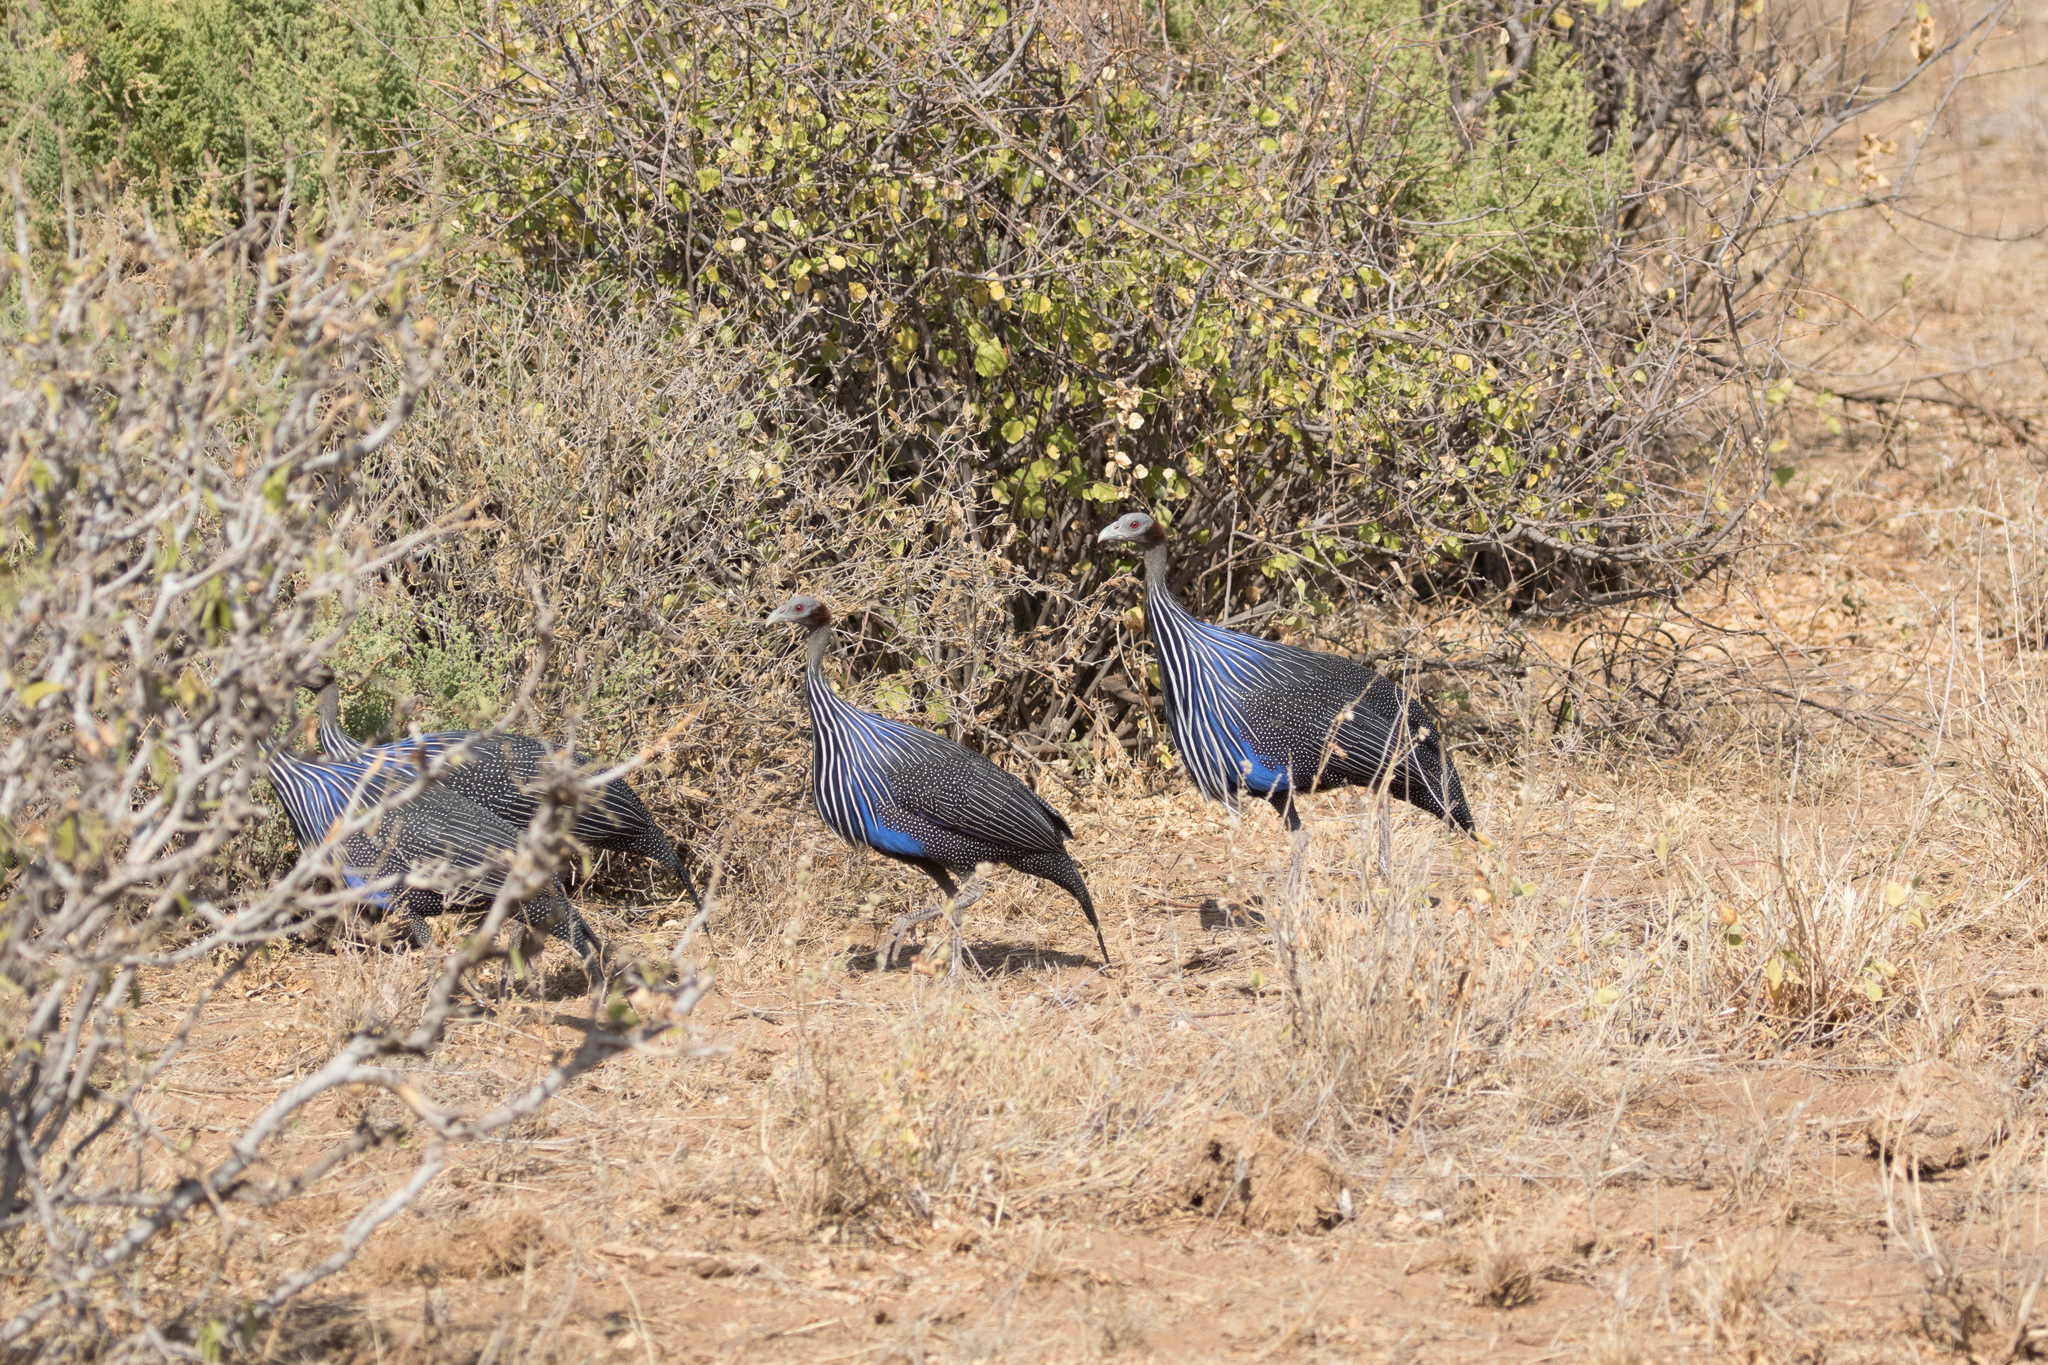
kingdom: Animalia
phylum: Chordata
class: Aves
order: Galliformes
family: Numididae
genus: Acryllium
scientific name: Acryllium vulturinum
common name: Vulturine guineafowl
